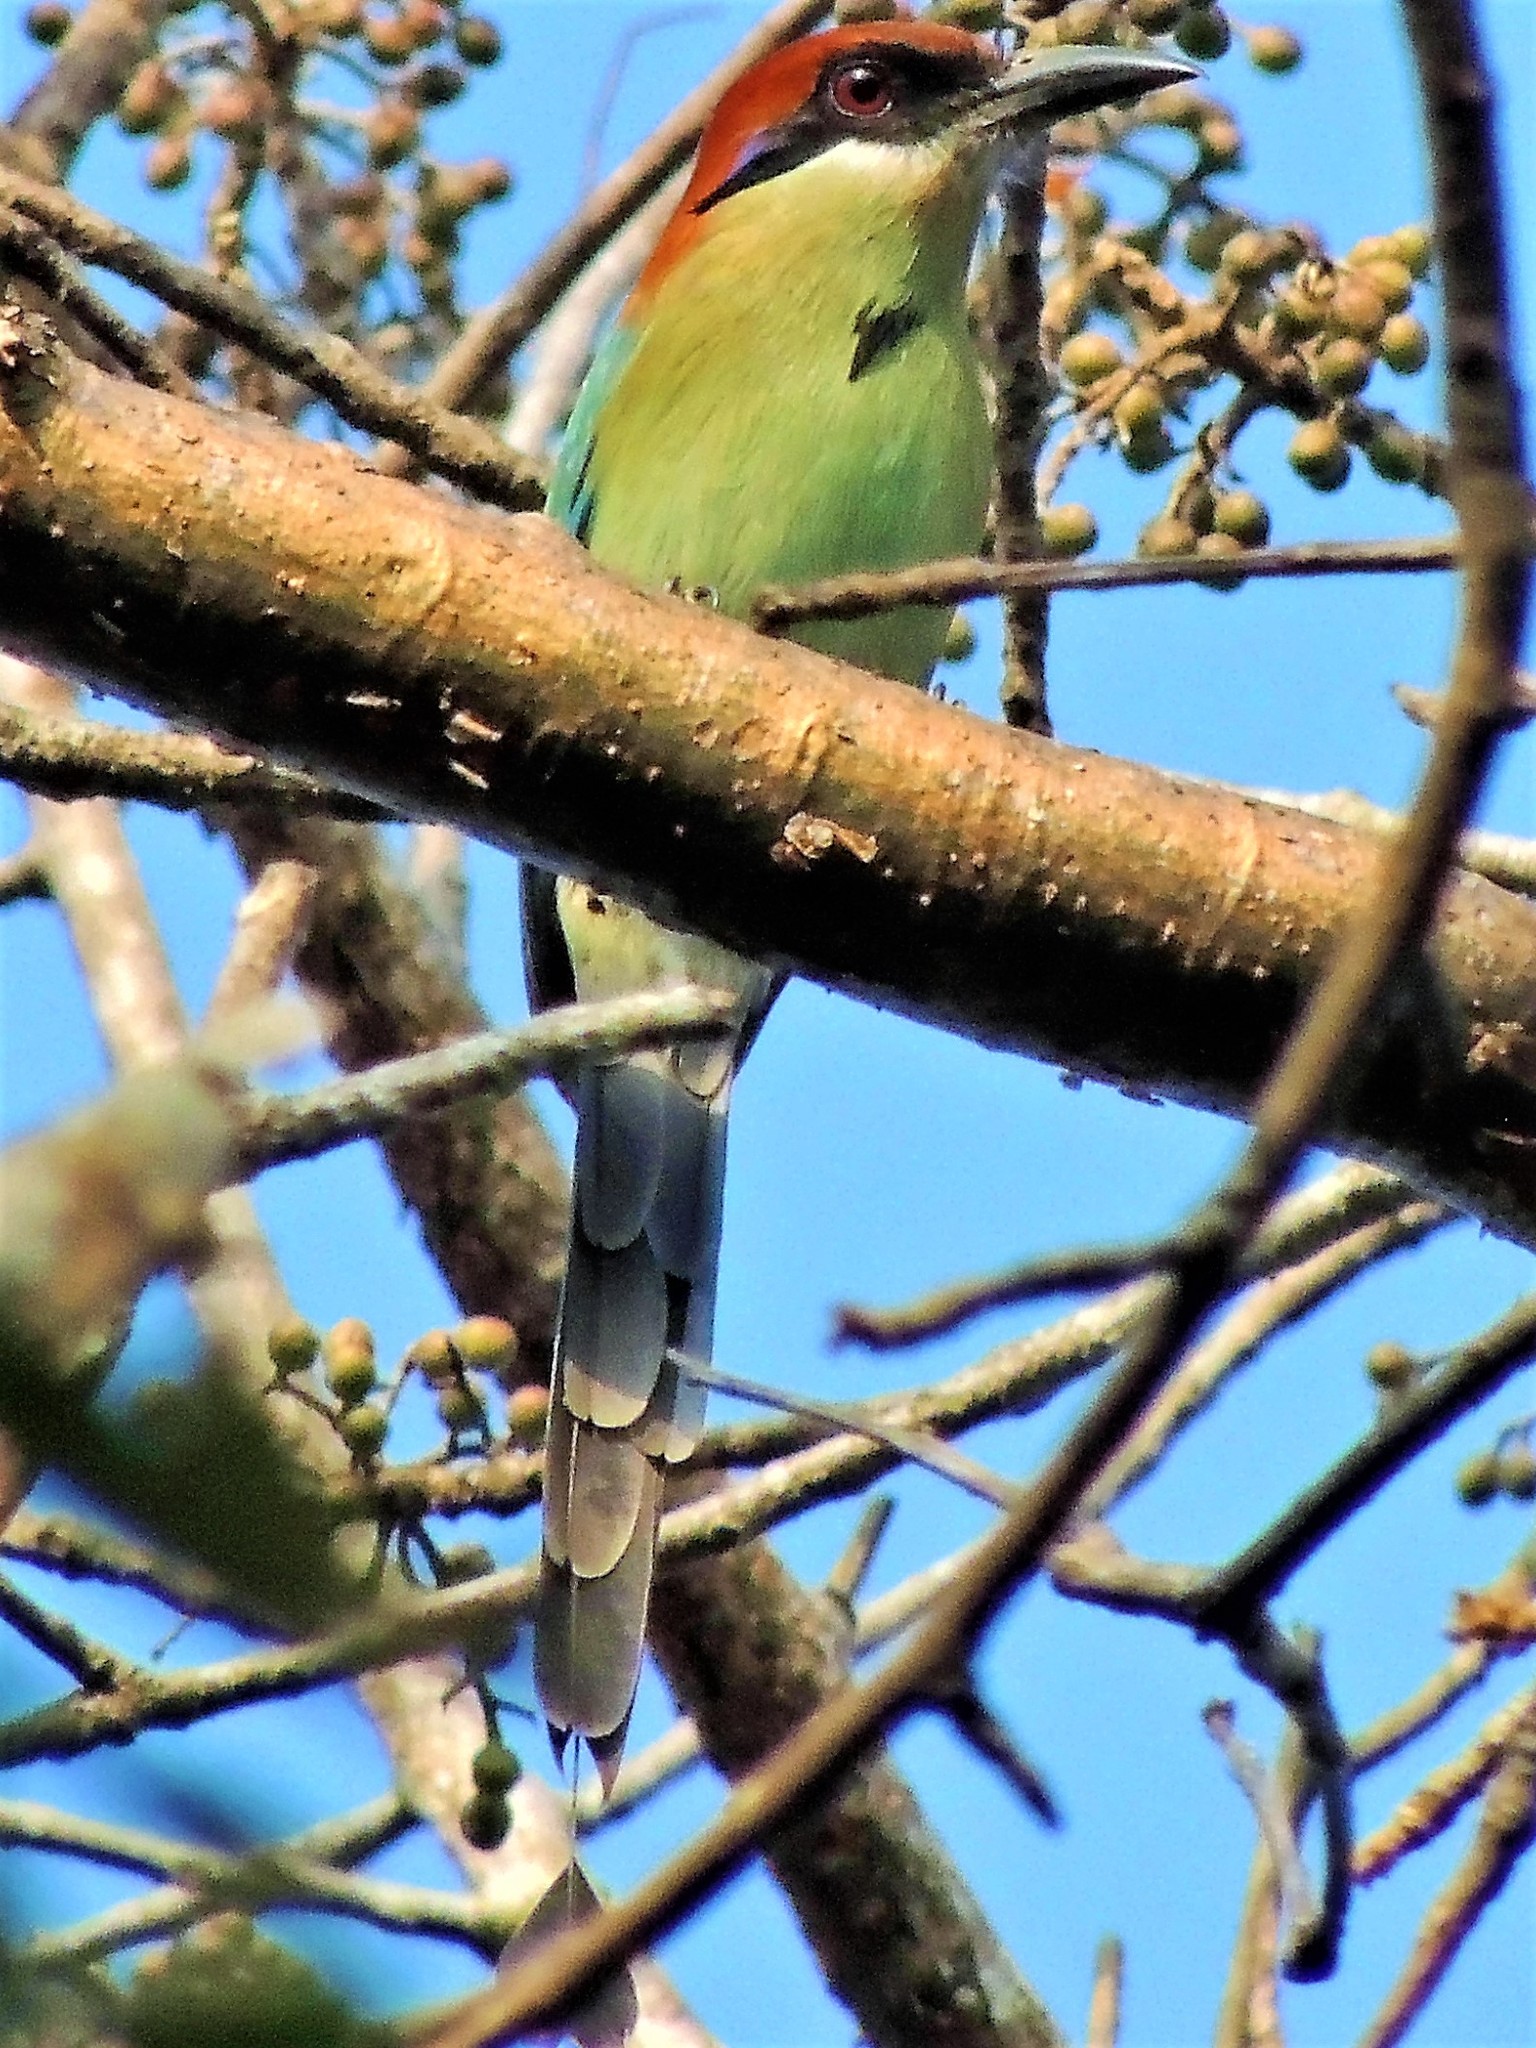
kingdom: Animalia
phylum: Chordata
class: Aves
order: Coraciiformes
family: Momotidae
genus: Momotus
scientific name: Momotus mexicanus
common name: Russet-crowned motmot
